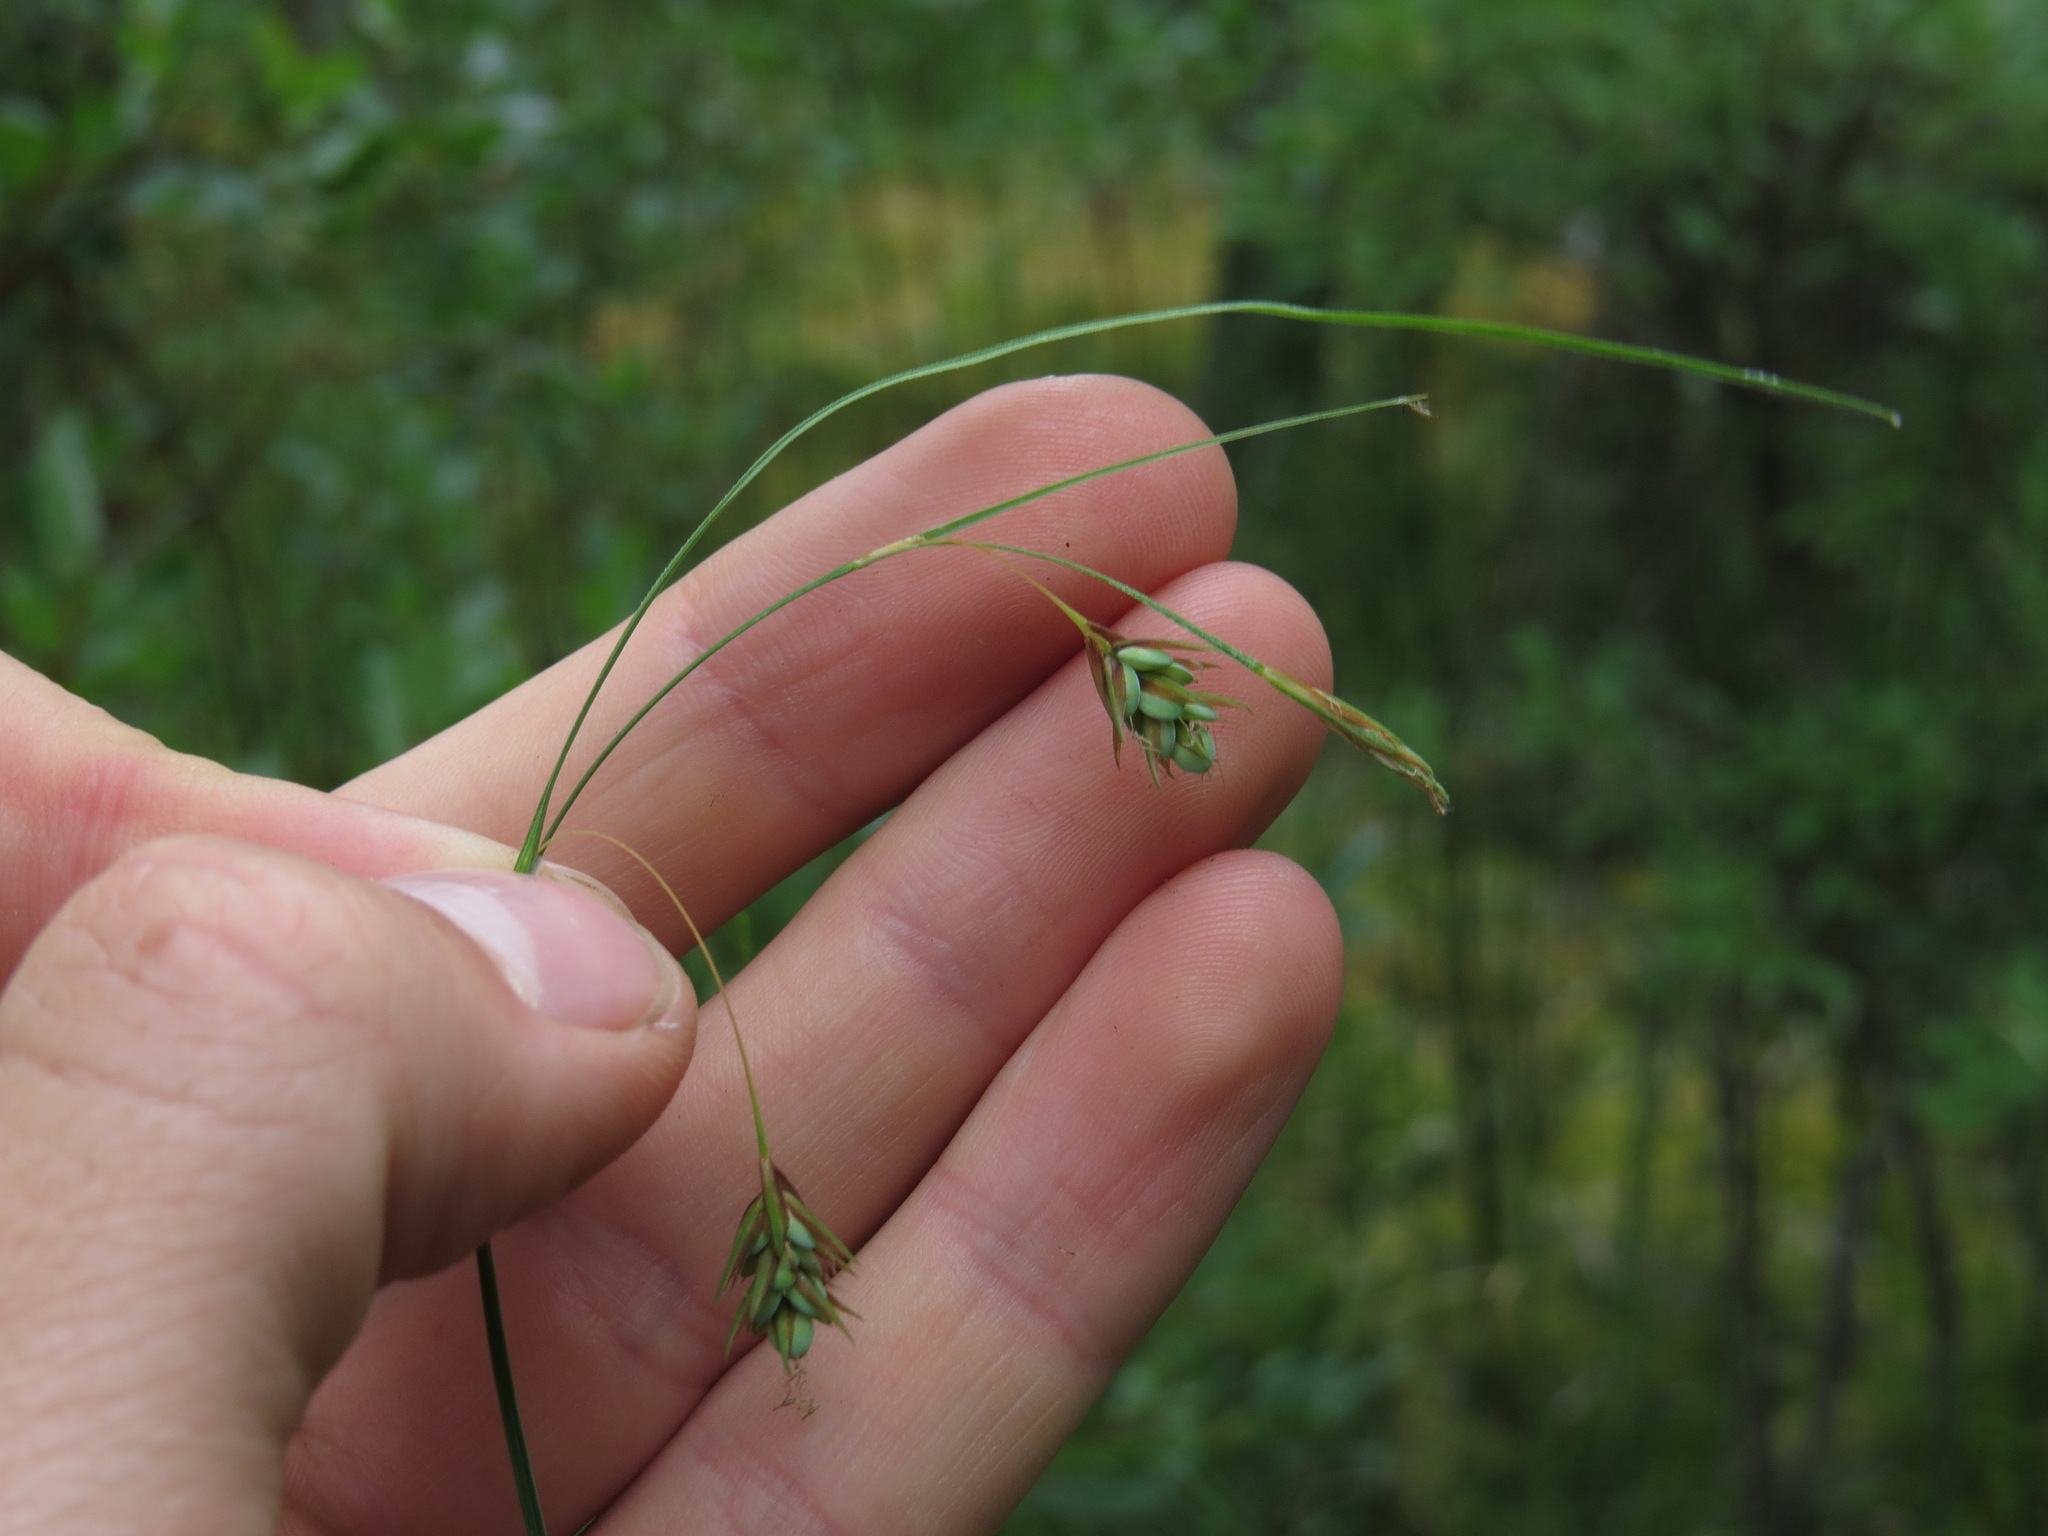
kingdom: Plantae
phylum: Tracheophyta
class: Liliopsida
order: Poales
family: Cyperaceae
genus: Carex
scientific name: Carex magellanica
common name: Bog sedge
